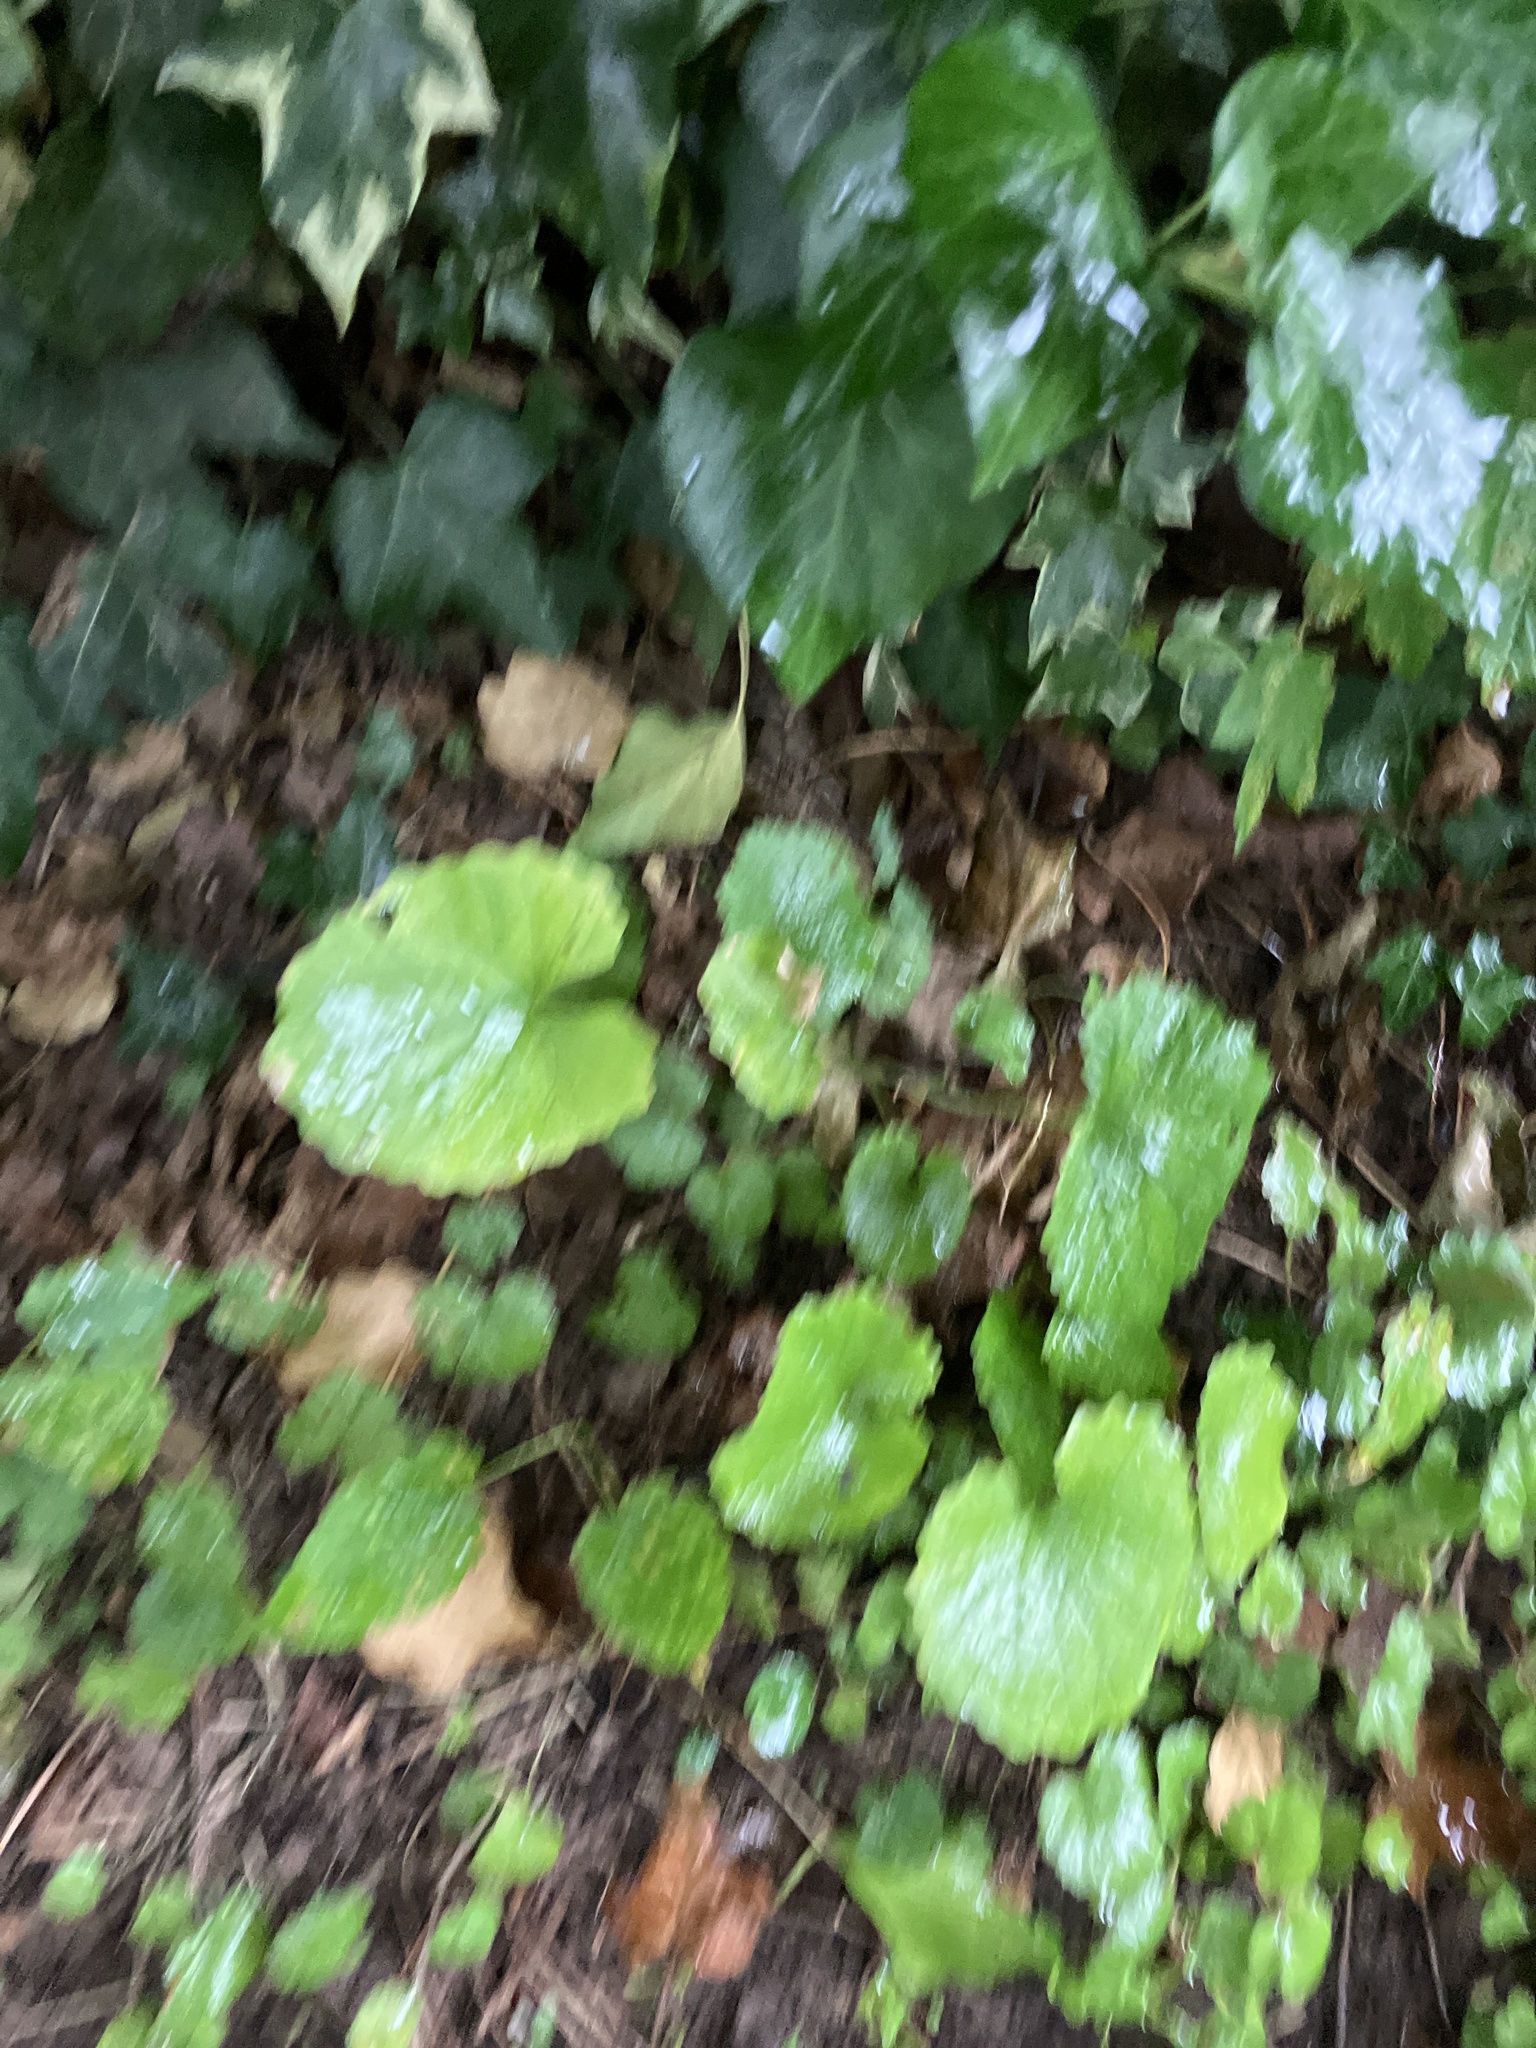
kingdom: Plantae
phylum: Tracheophyta
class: Magnoliopsida
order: Brassicales
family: Brassicaceae
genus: Alliaria
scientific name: Alliaria petiolata
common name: Garlic mustard
